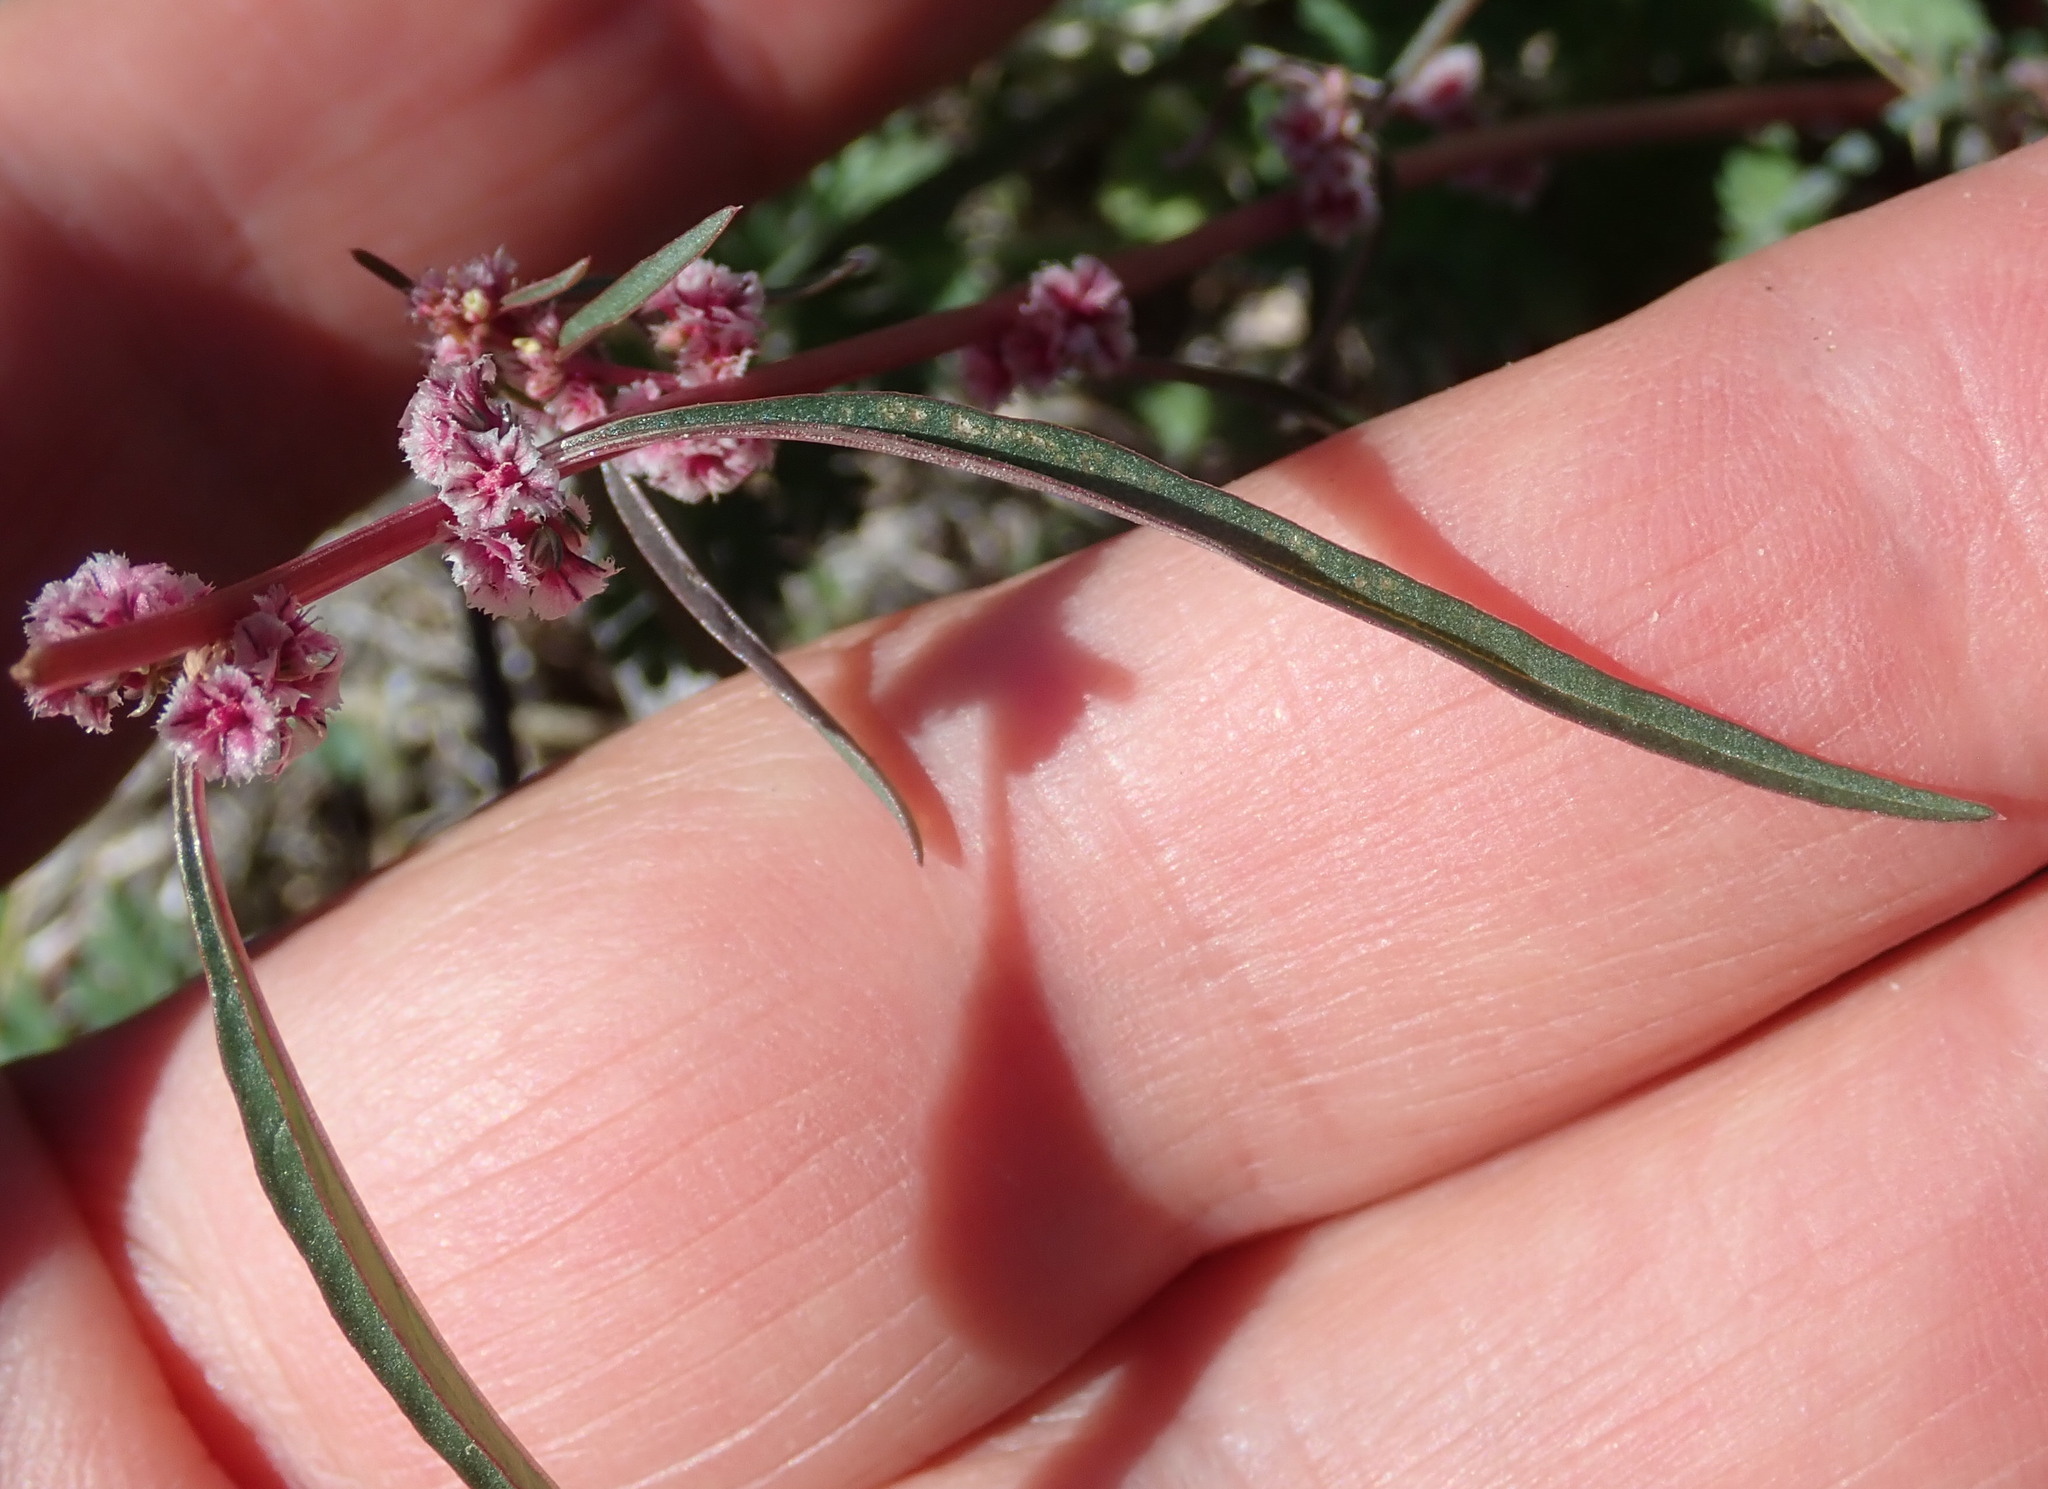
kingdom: Plantae
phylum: Tracheophyta
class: Magnoliopsida
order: Caryophyllales
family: Amaranthaceae
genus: Amaranthus
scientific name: Amaranthus fimbriatus
